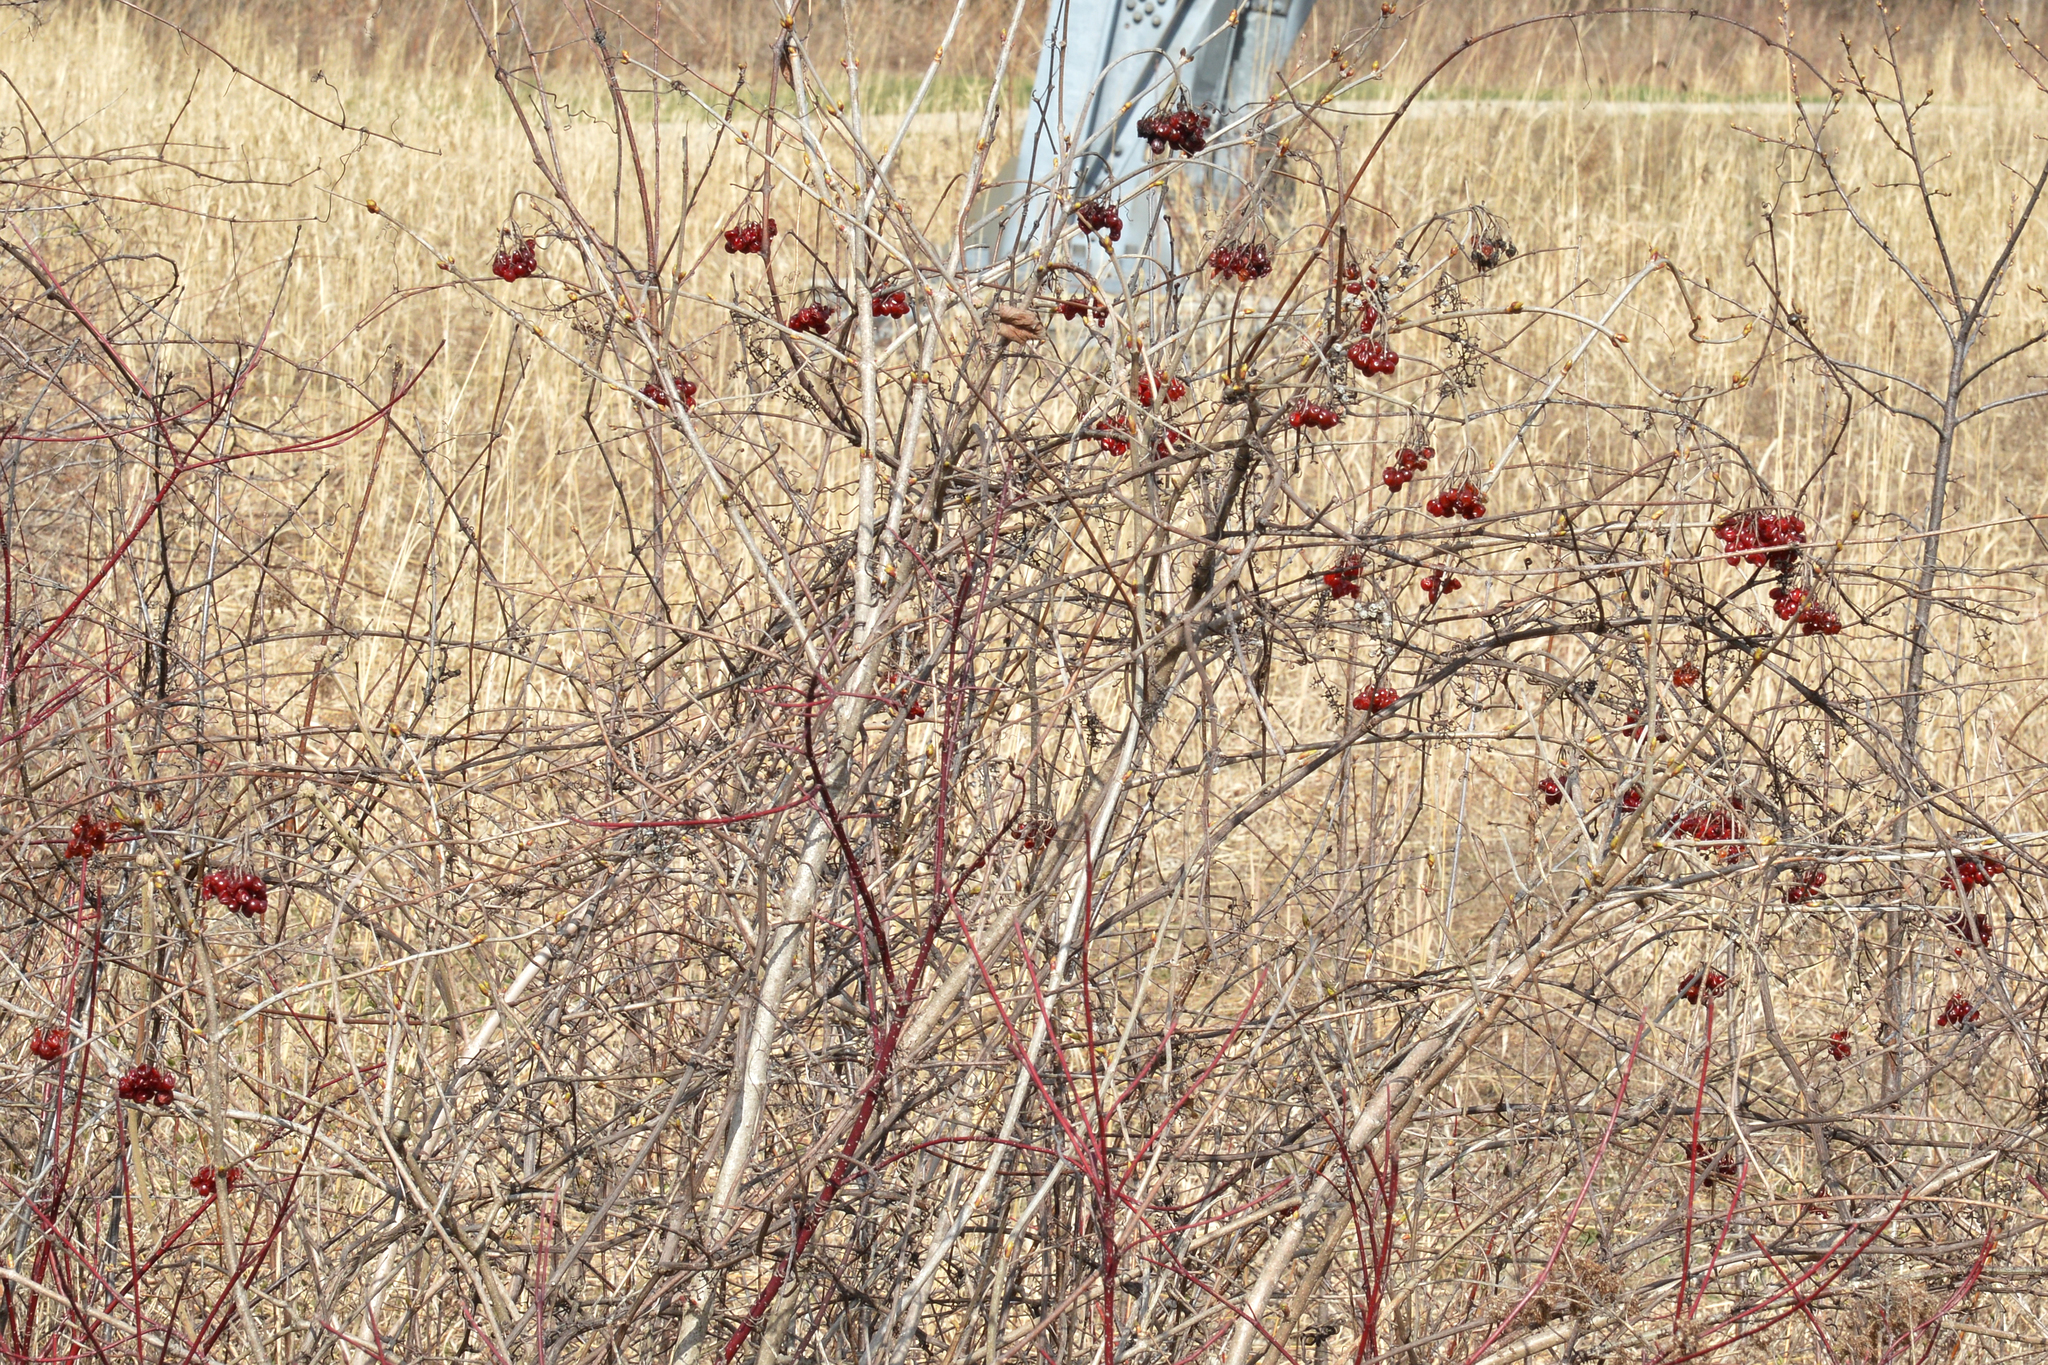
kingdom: Plantae
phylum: Tracheophyta
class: Magnoliopsida
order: Dipsacales
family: Viburnaceae
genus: Viburnum
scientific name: Viburnum opulus
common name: Guelder-rose
